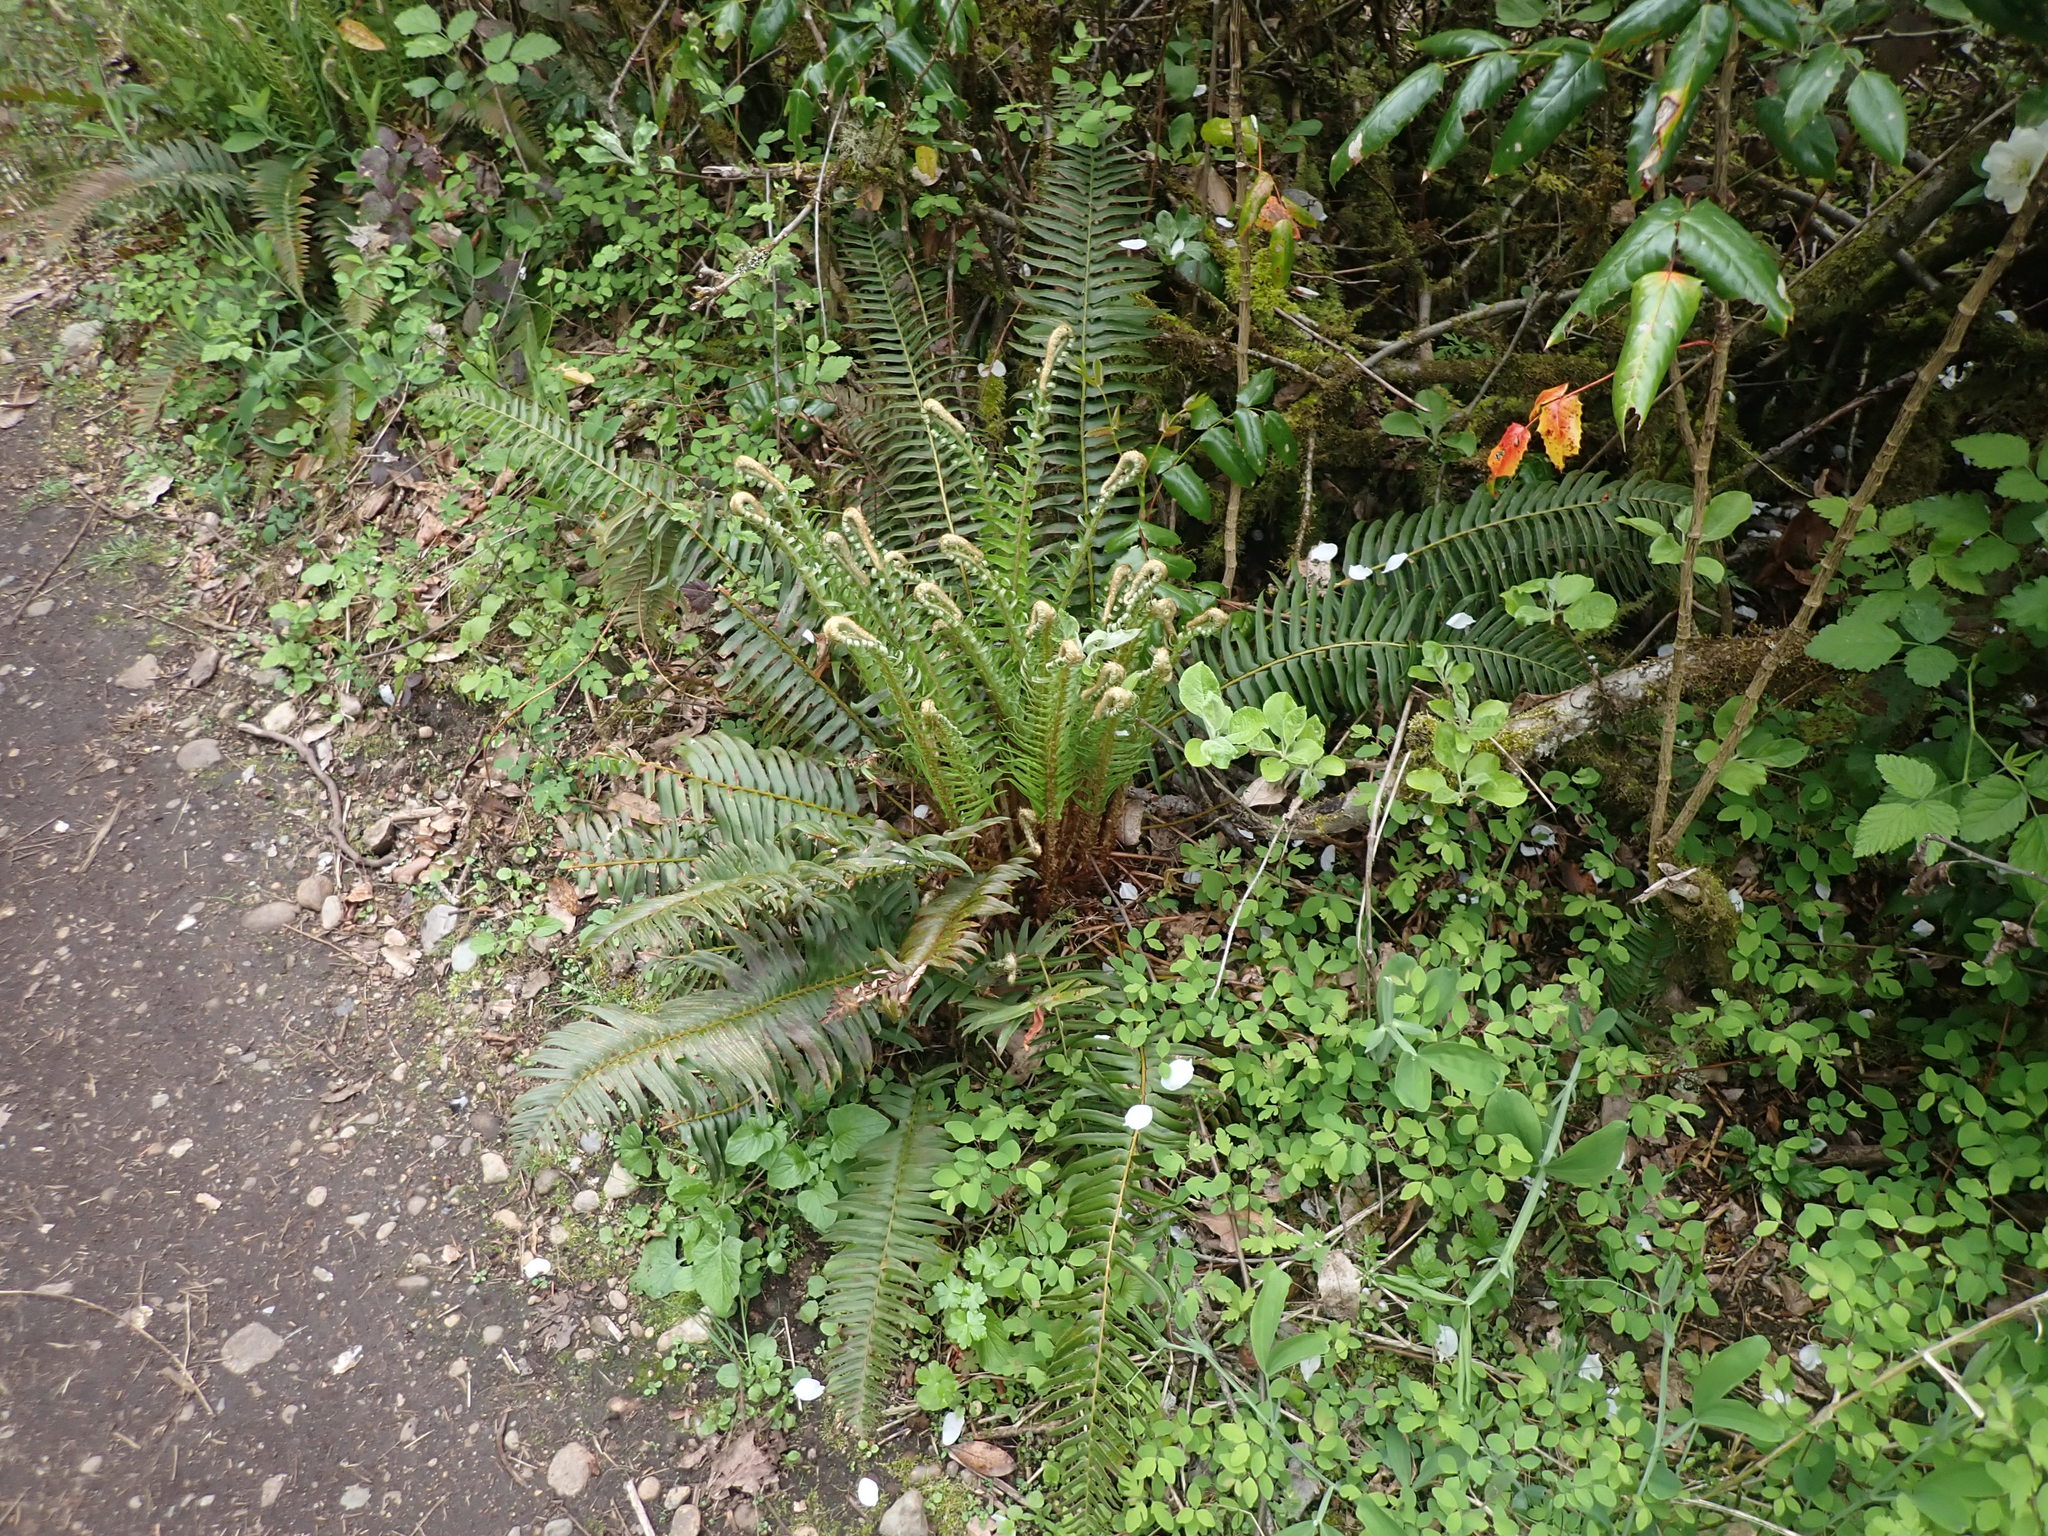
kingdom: Plantae
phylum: Tracheophyta
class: Polypodiopsida
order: Polypodiales
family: Dryopteridaceae
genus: Polystichum
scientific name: Polystichum munitum
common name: Western sword-fern
